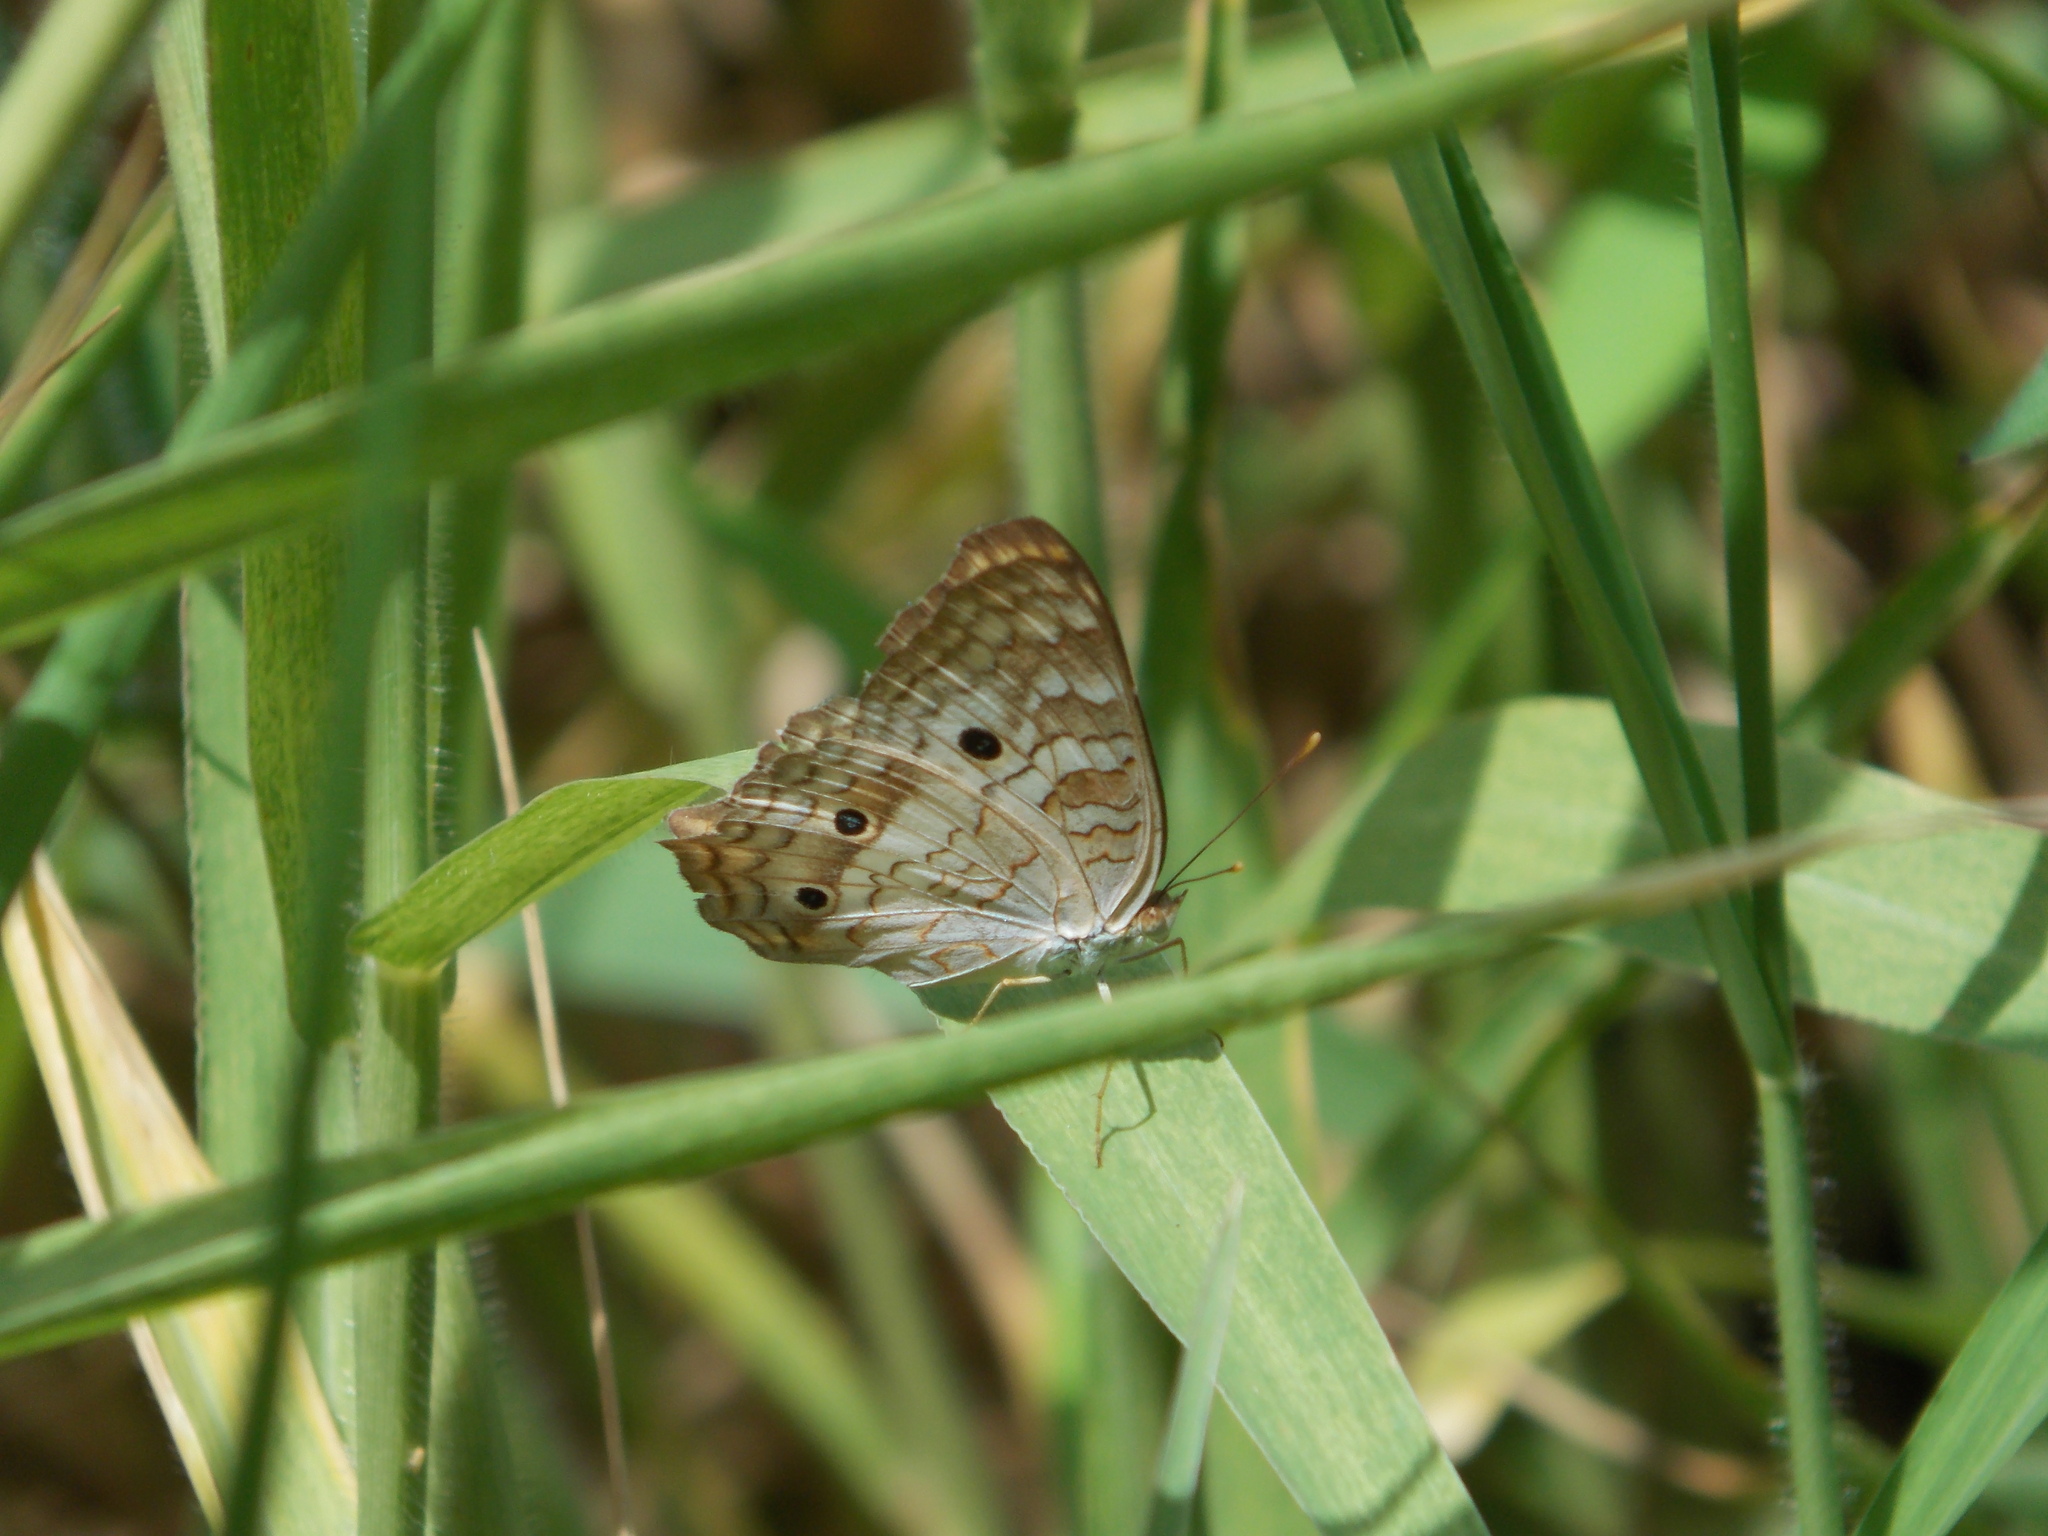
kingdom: Animalia
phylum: Arthropoda
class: Insecta
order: Lepidoptera
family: Nymphalidae
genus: Anartia
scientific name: Anartia jatrophae
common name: White peacock
